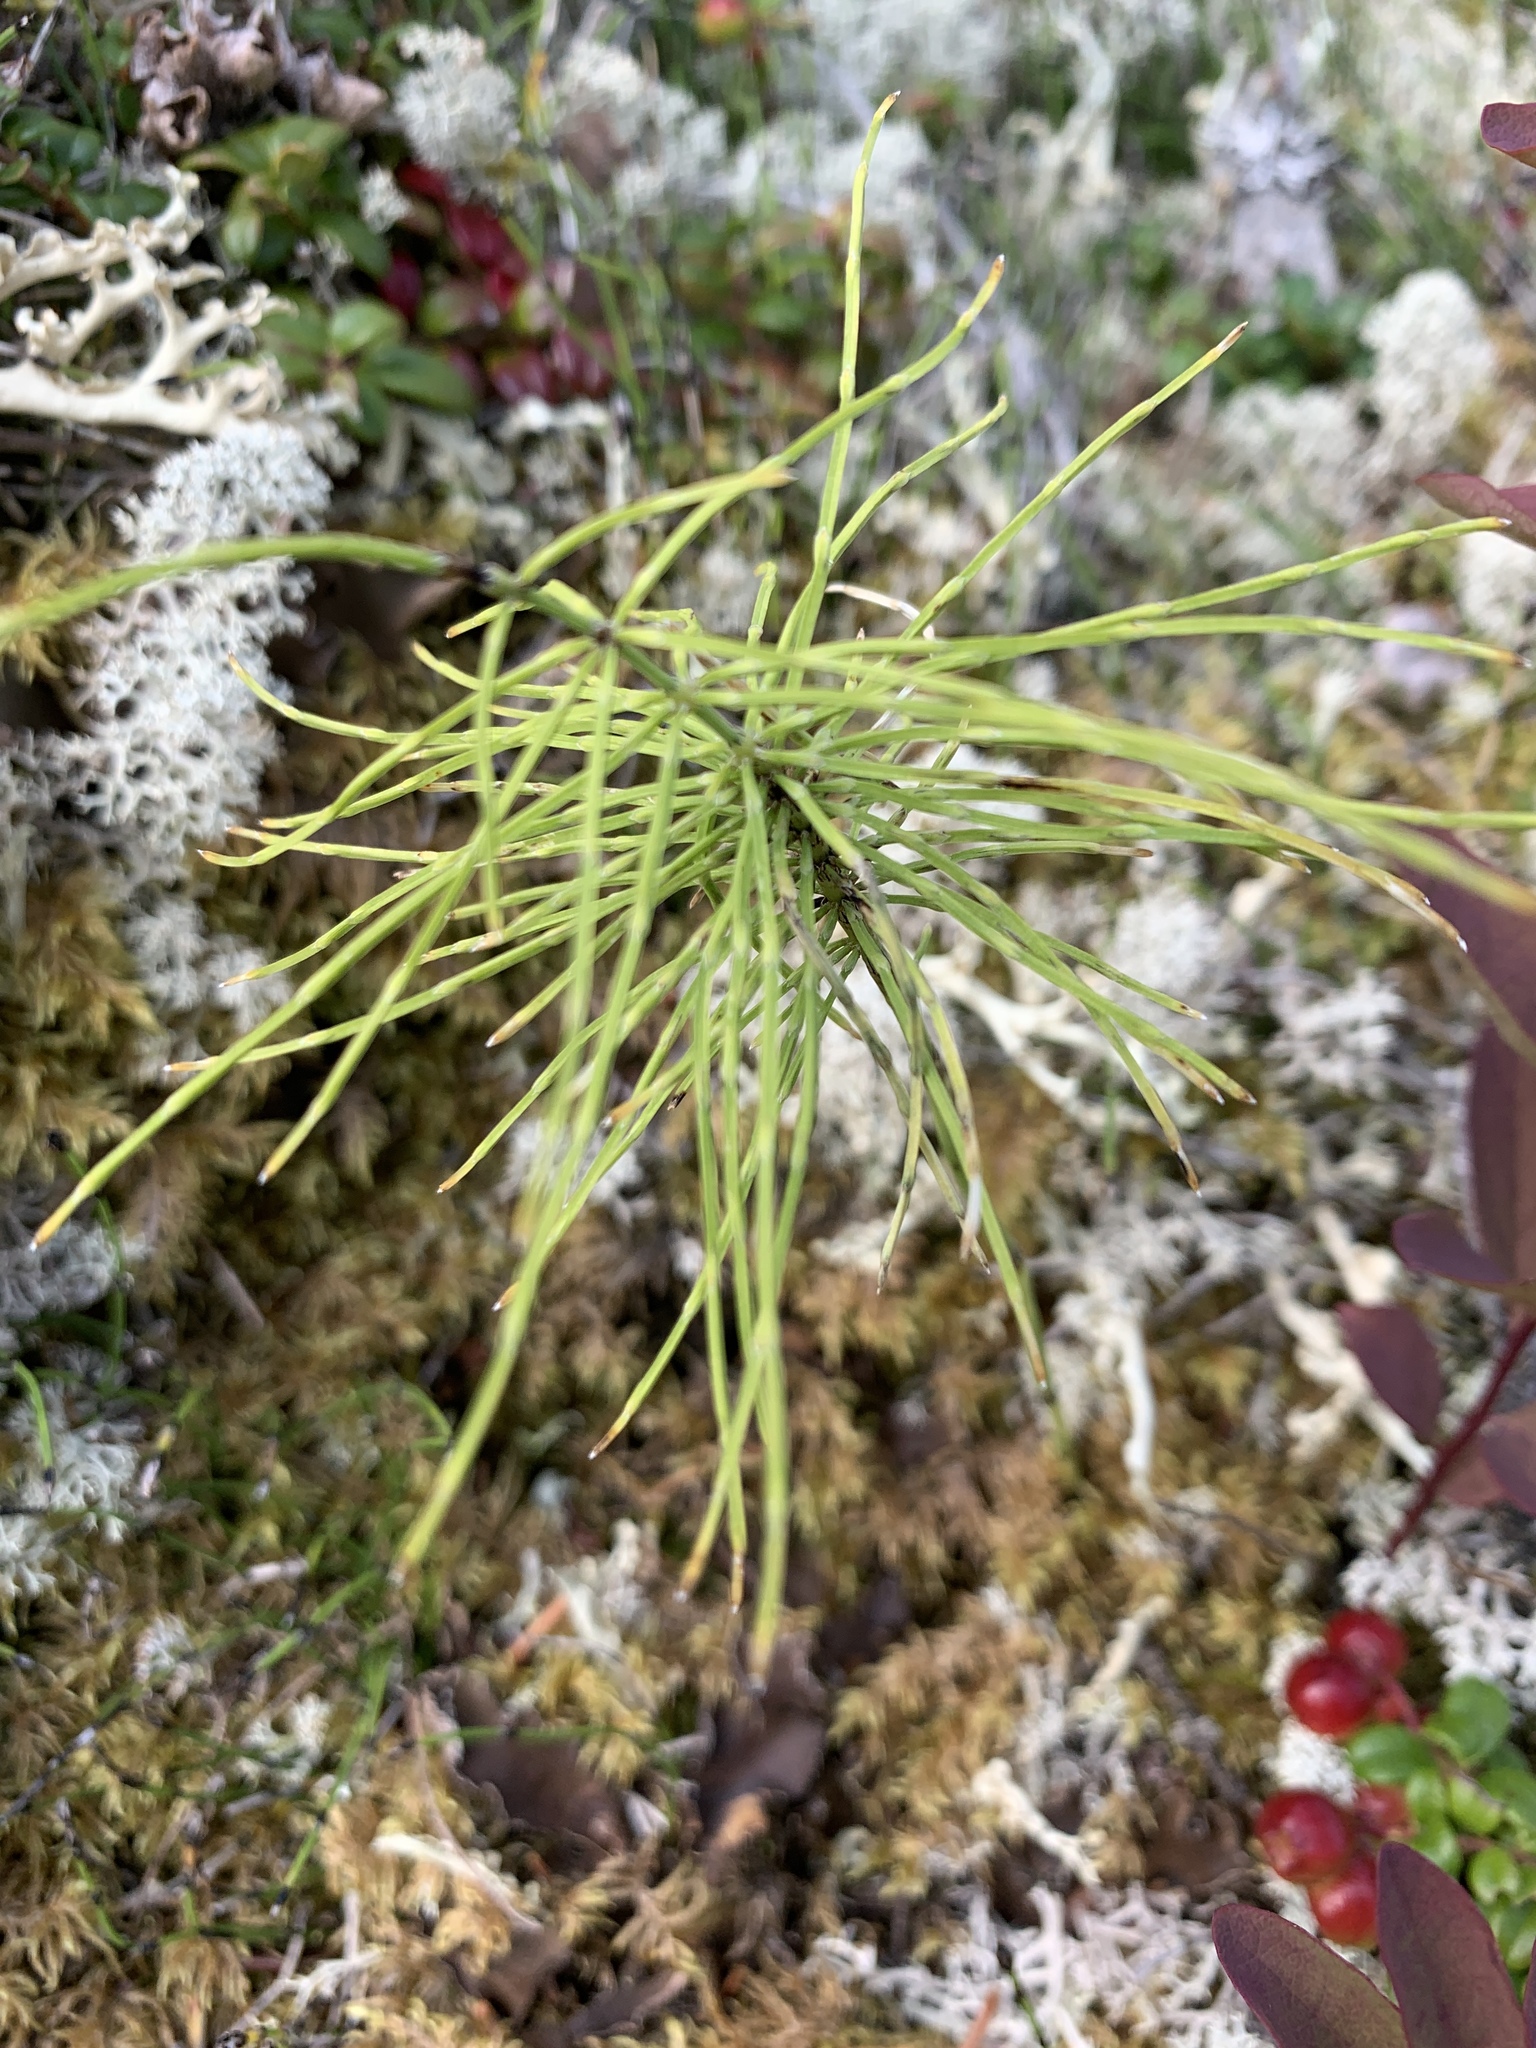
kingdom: Plantae
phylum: Tracheophyta
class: Polypodiopsida
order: Equisetales
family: Equisetaceae
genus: Equisetum
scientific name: Equisetum arvense
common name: Field horsetail
